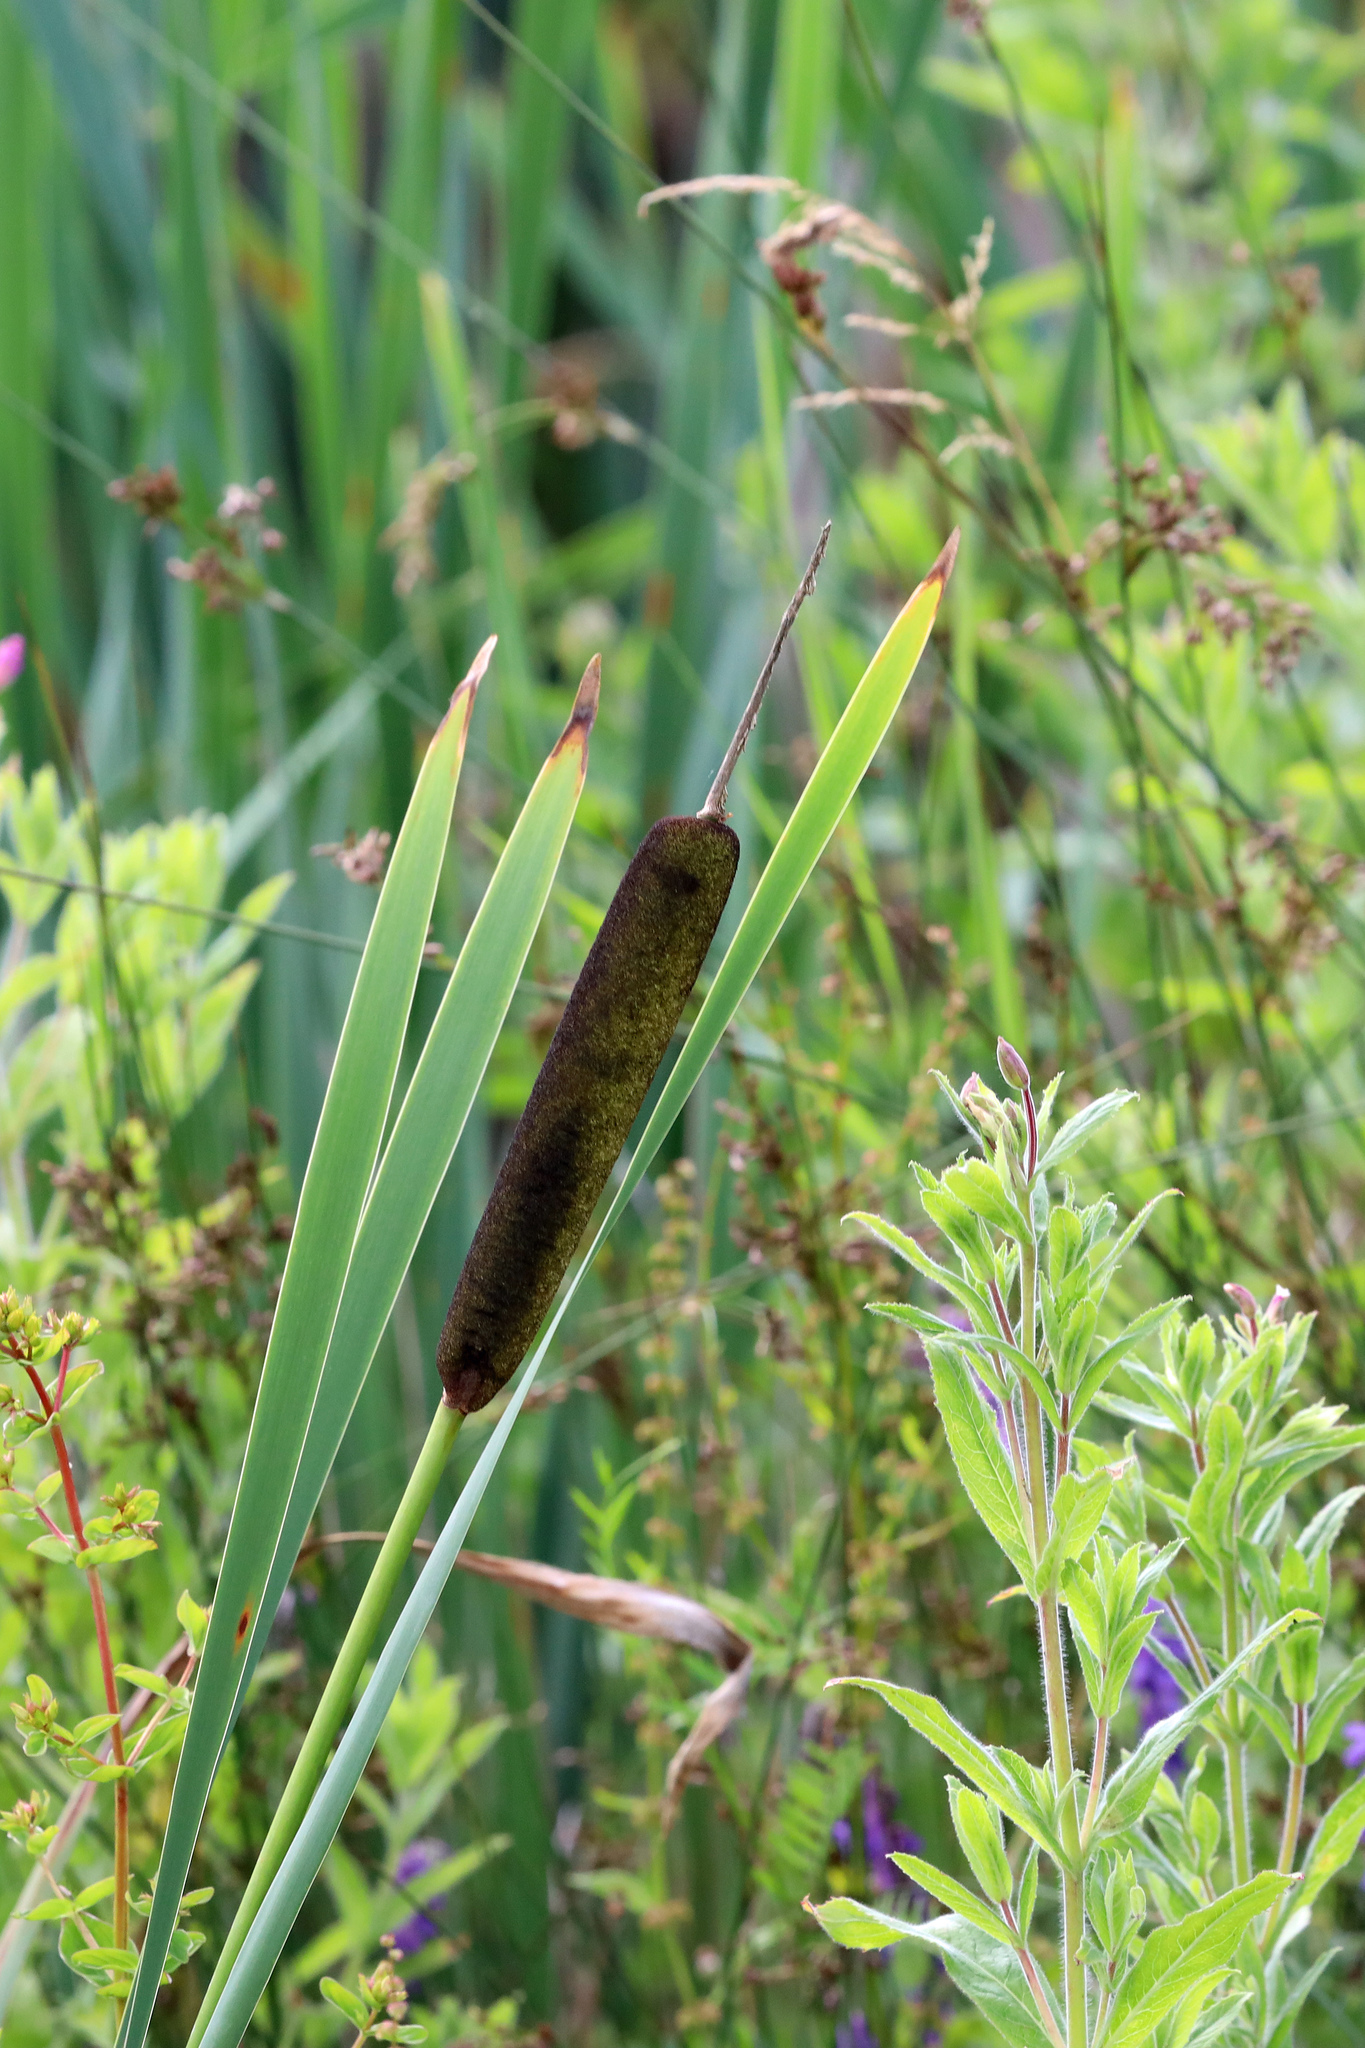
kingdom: Plantae
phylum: Tracheophyta
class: Liliopsida
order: Poales
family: Typhaceae
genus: Typha
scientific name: Typha latifolia
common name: Broadleaf cattail
